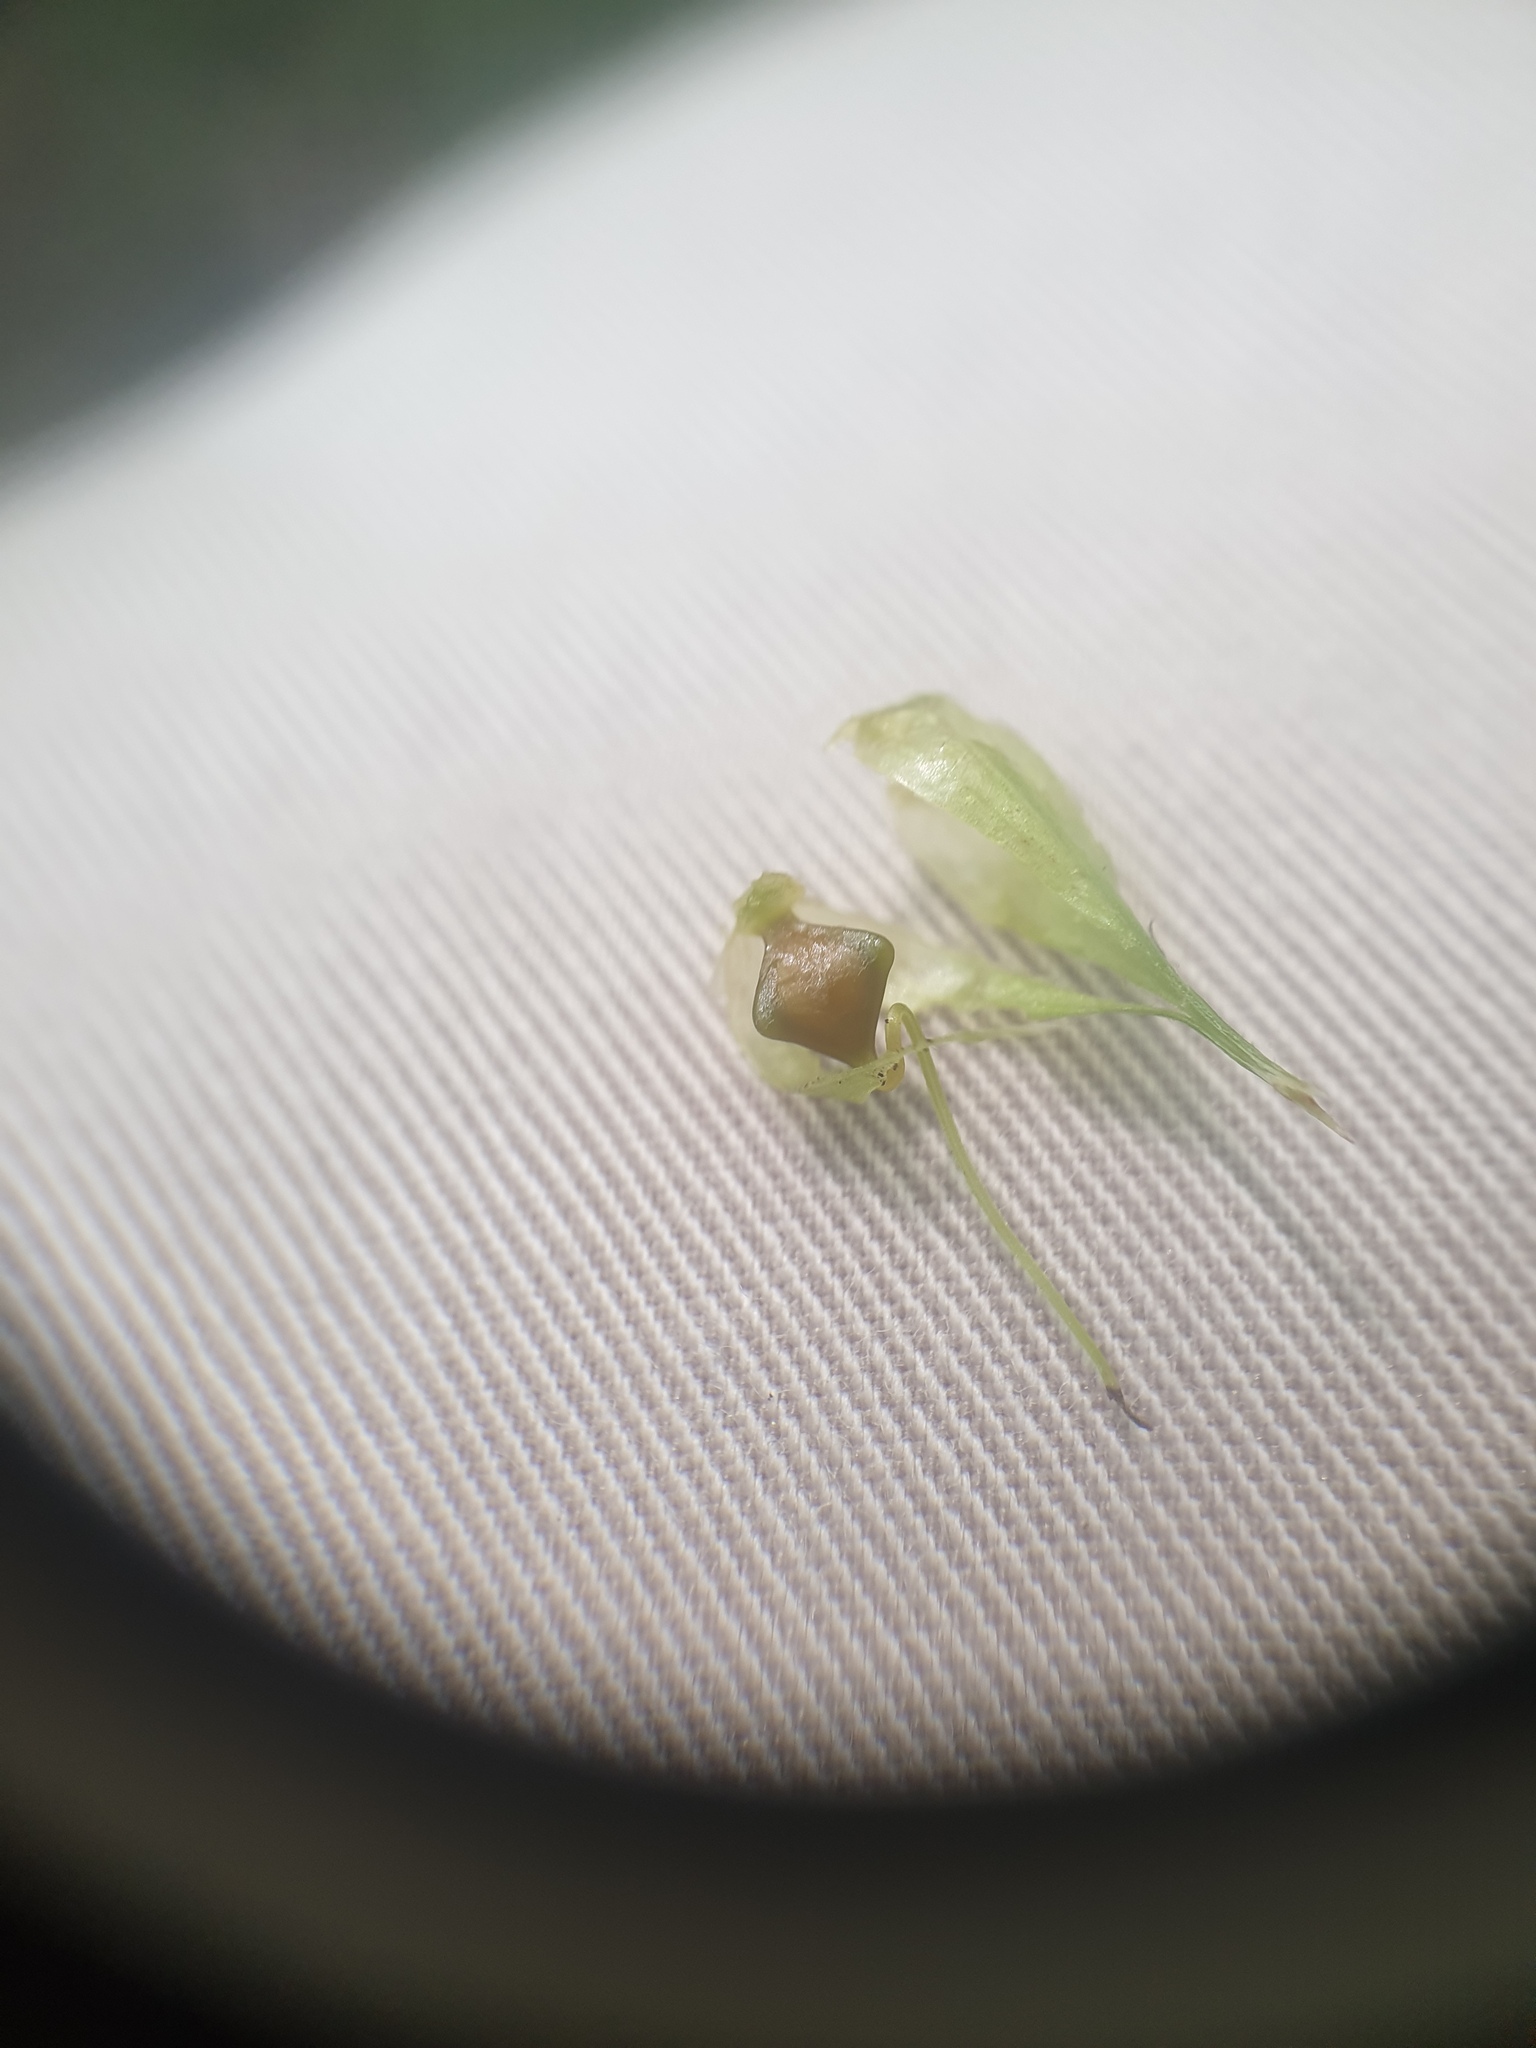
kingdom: Plantae
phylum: Tracheophyta
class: Liliopsida
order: Poales
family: Cyperaceae
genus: Carex
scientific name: Carex lupuliformis
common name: False hop sedge
